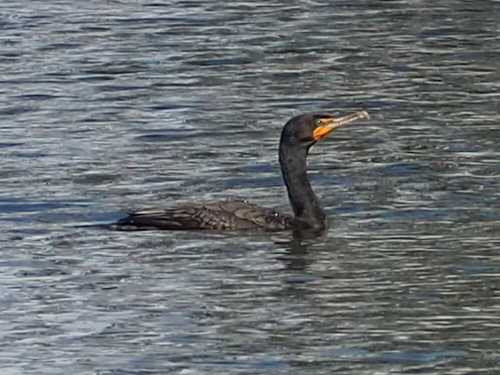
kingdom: Animalia
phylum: Chordata
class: Aves
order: Suliformes
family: Phalacrocoracidae
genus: Phalacrocorax
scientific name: Phalacrocorax auritus
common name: Double-crested cormorant
